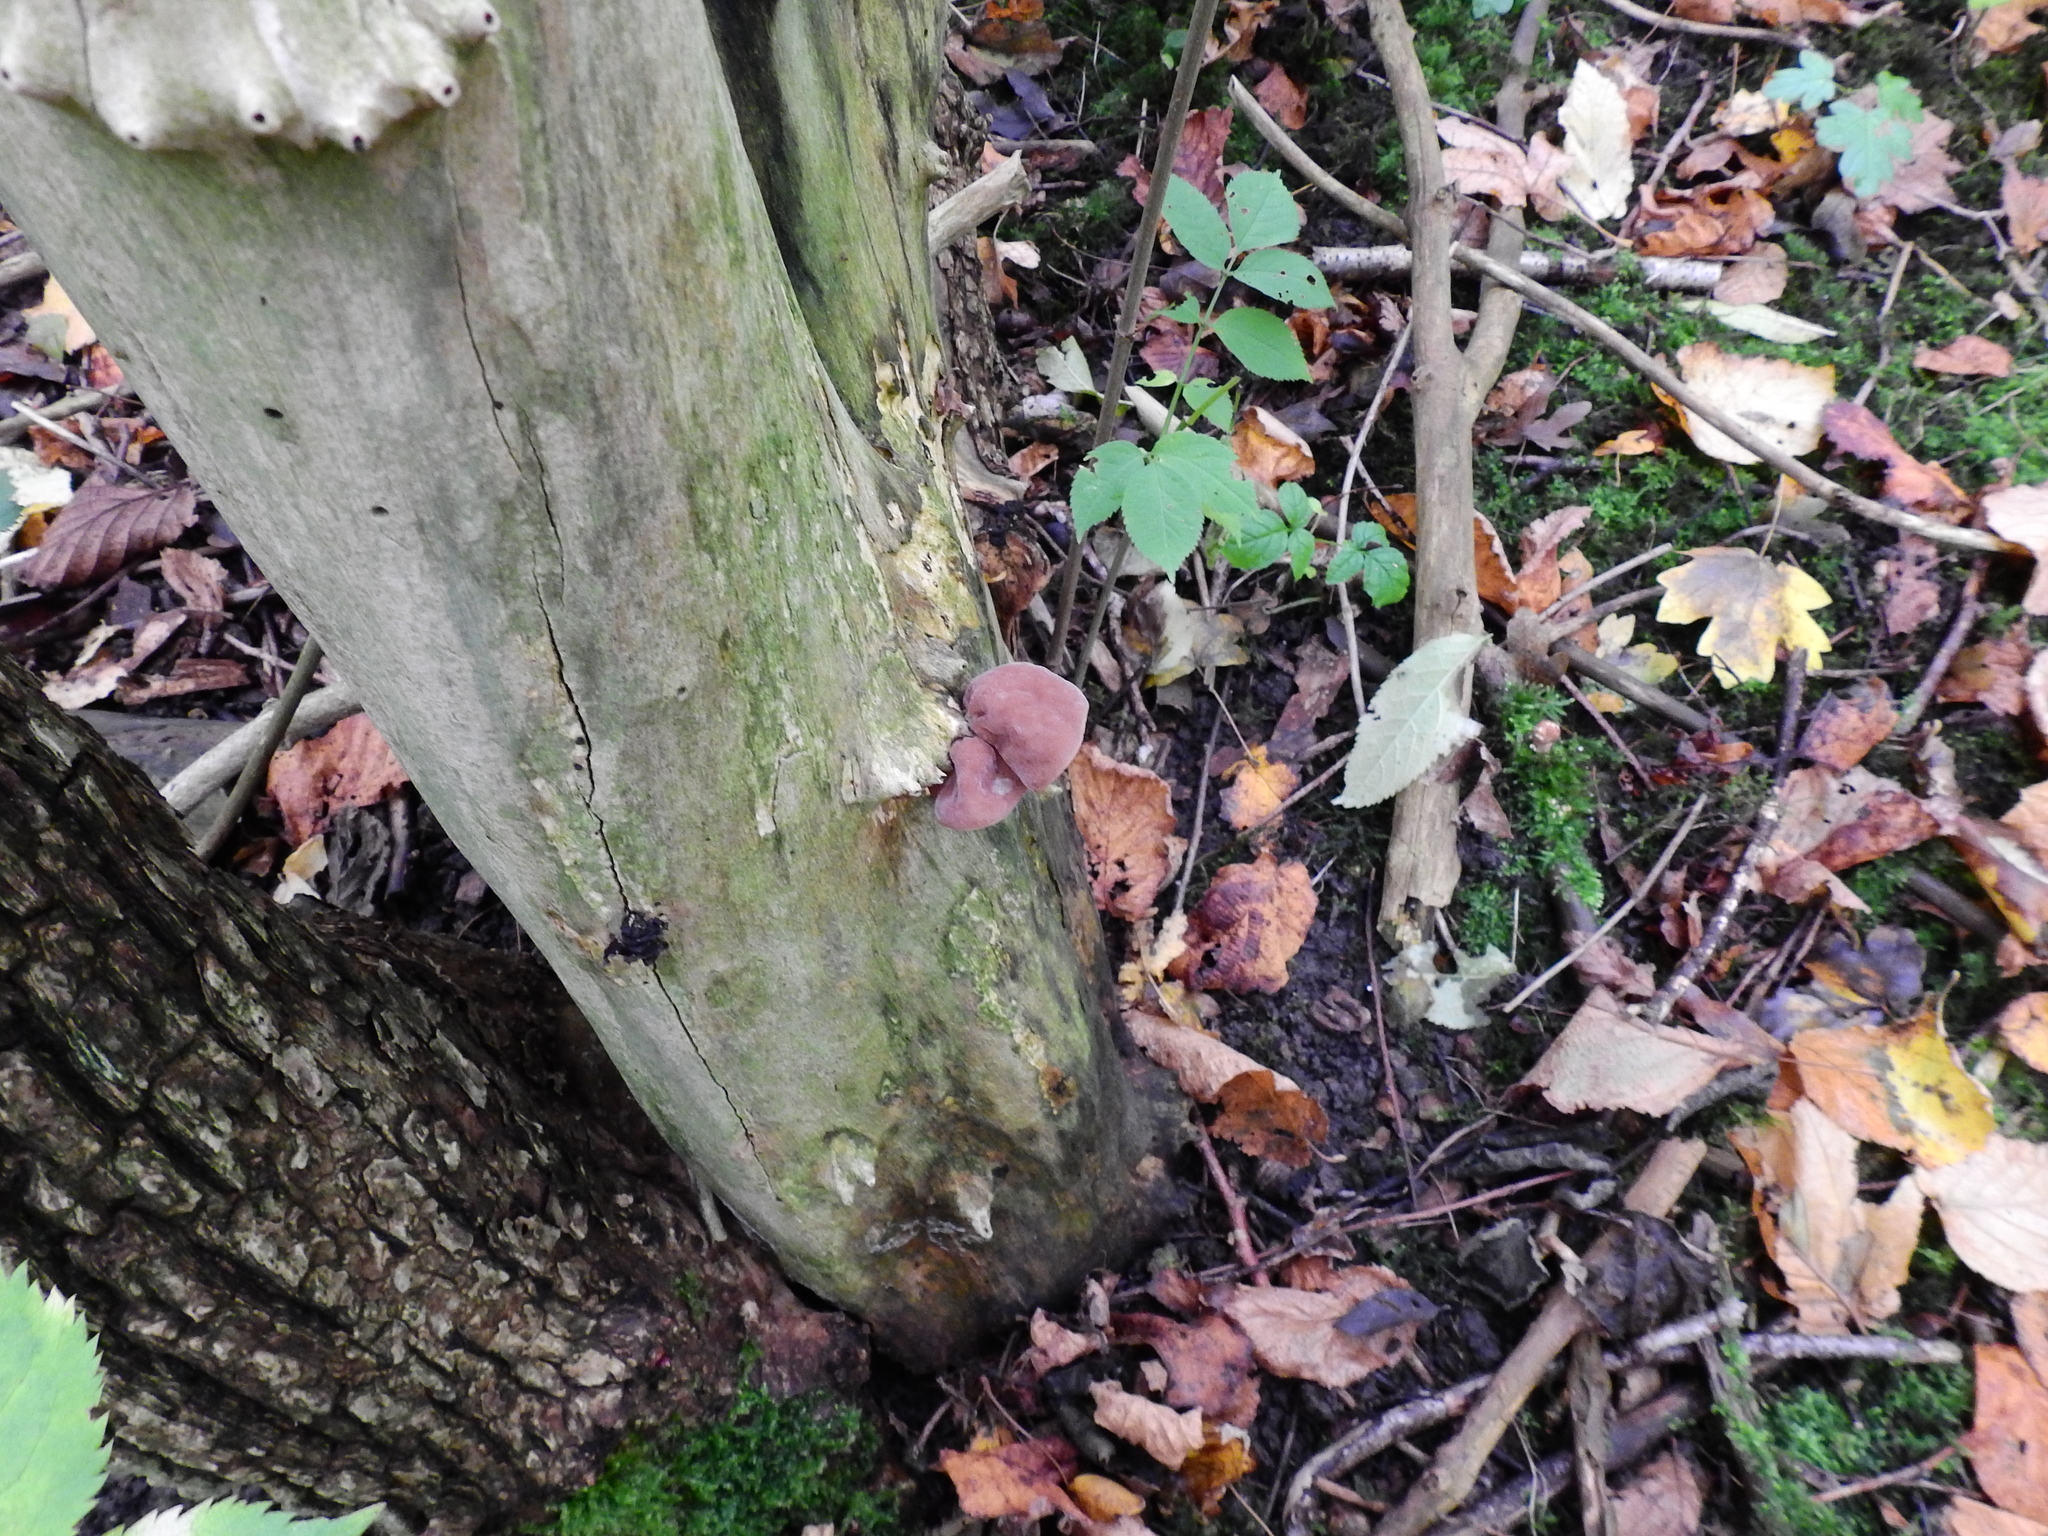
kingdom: Fungi
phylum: Basidiomycota
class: Agaricomycetes
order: Auriculariales
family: Auriculariaceae
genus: Auricularia
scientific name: Auricularia auricula-judae
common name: Jelly ear
